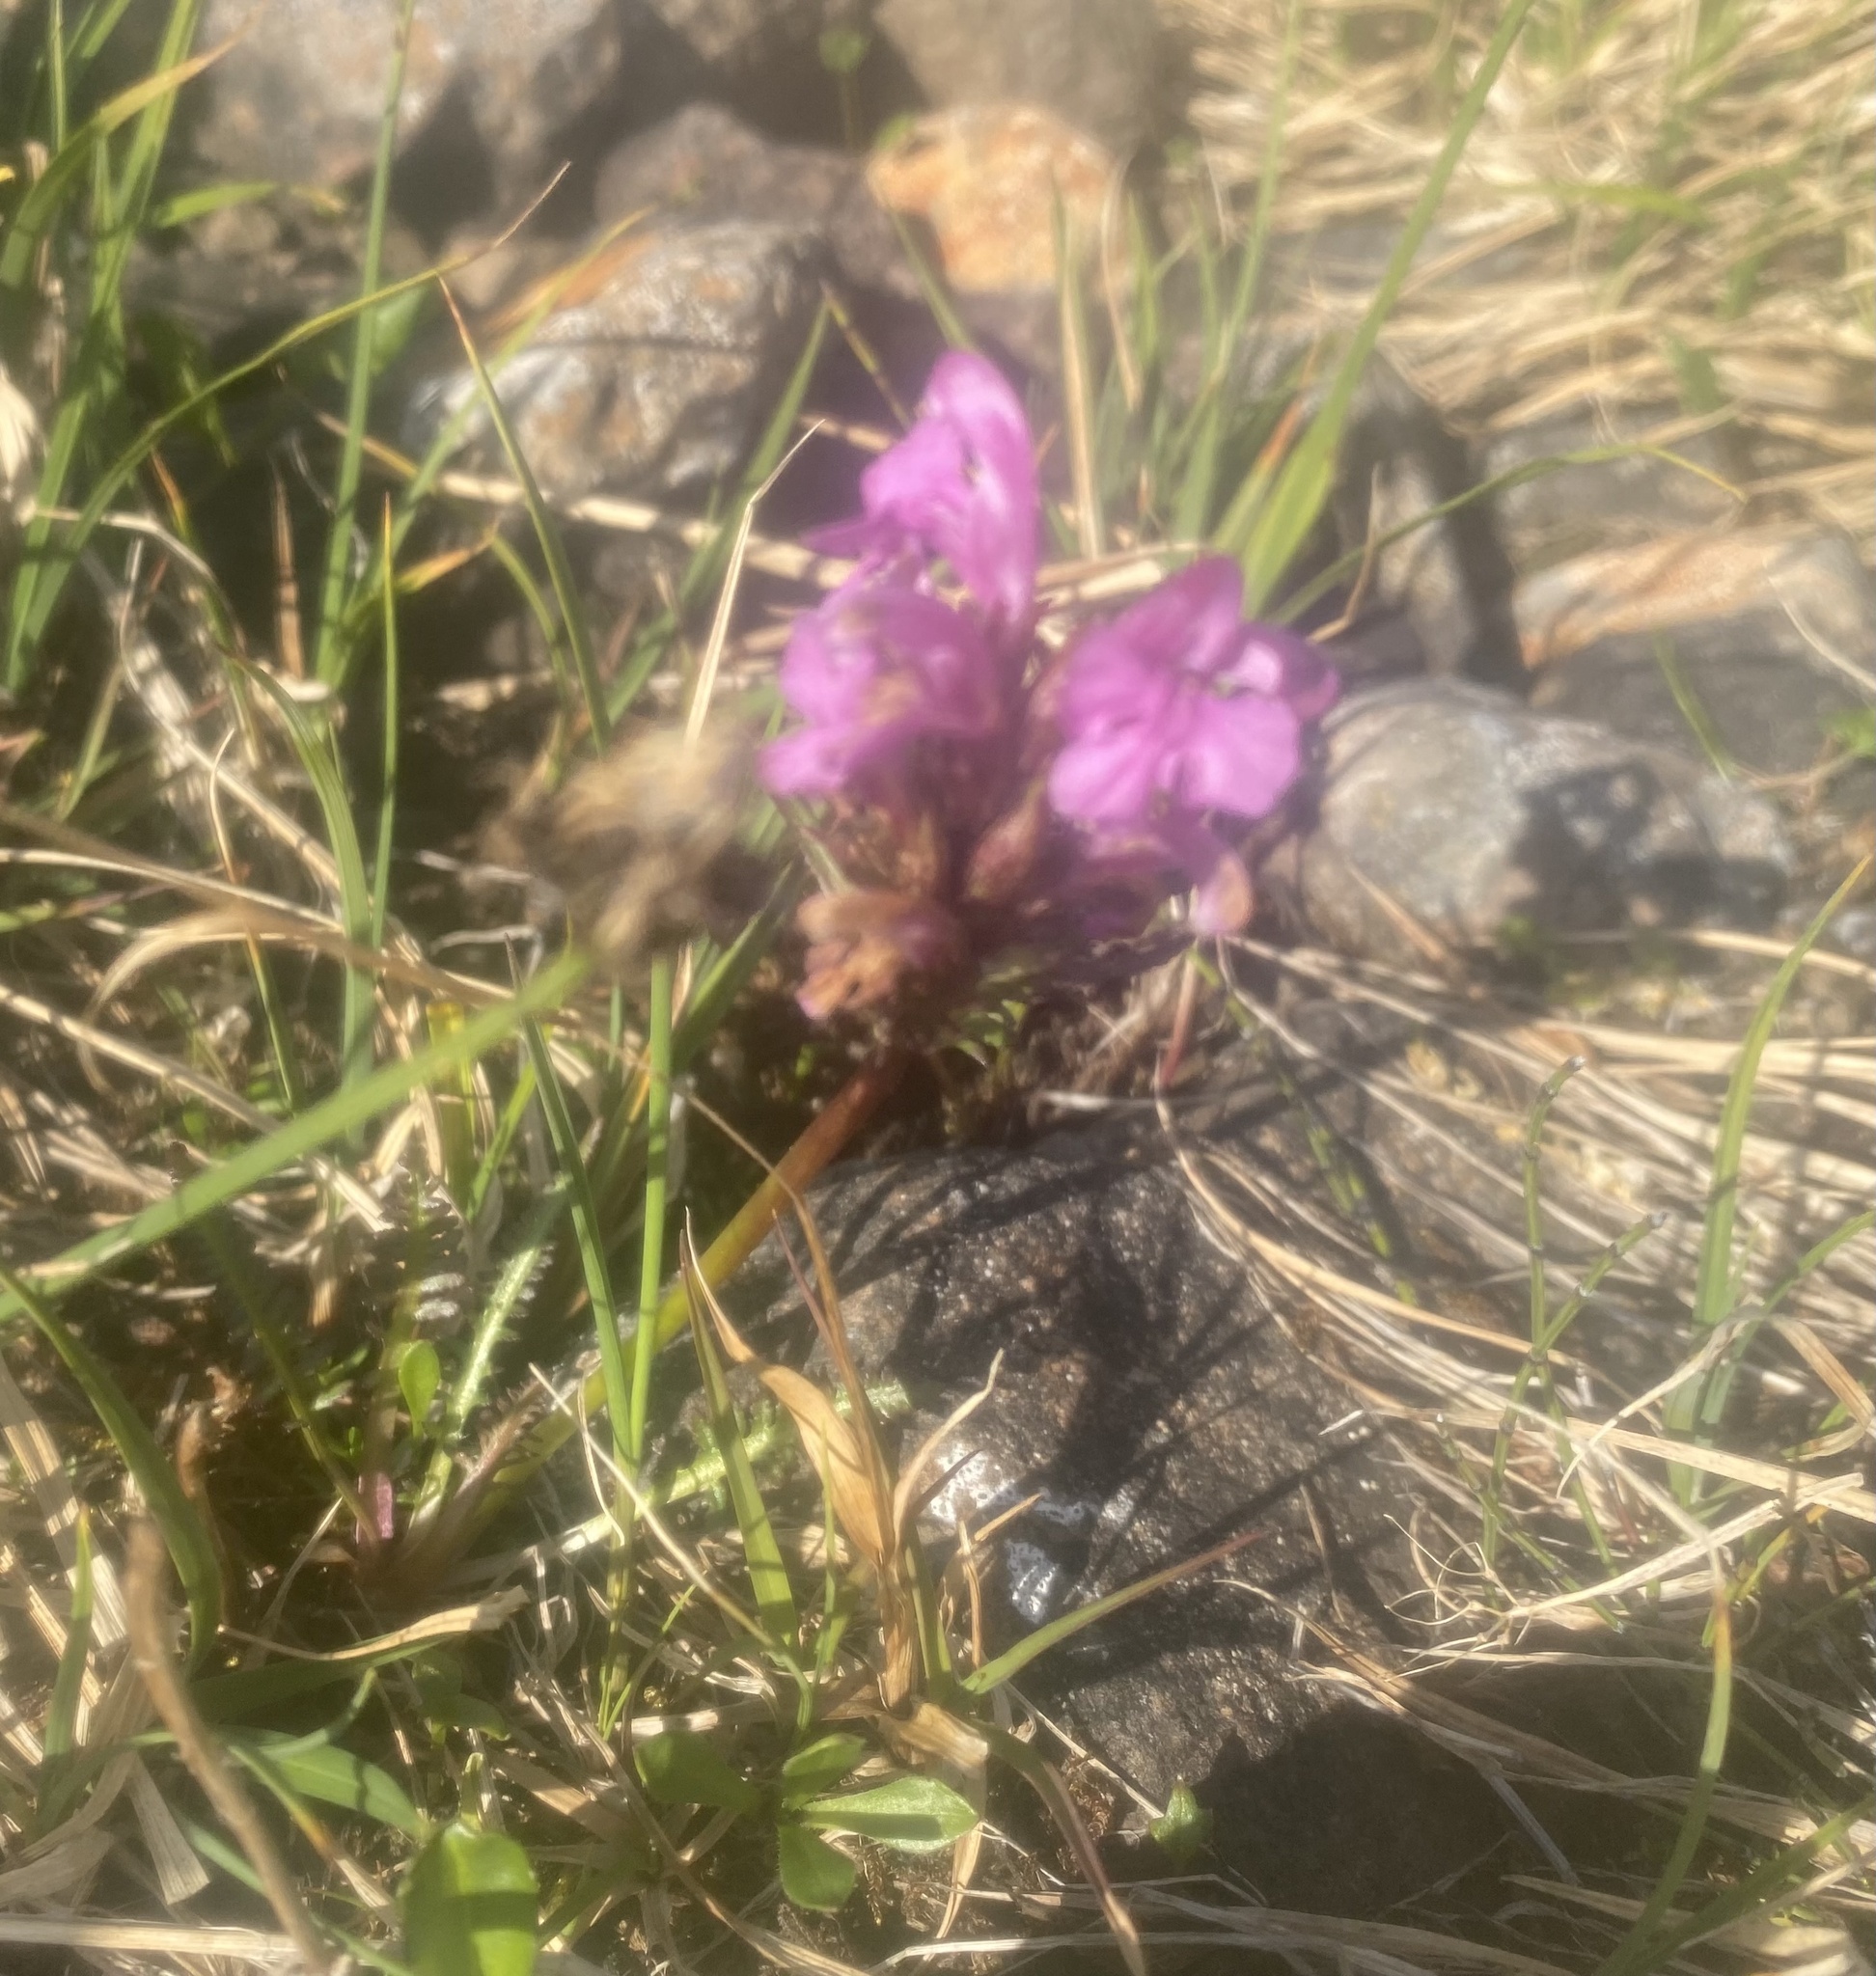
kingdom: Plantae
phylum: Tracheophyta
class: Magnoliopsida
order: Lamiales
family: Orobanchaceae
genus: Pedicularis
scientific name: Pedicularis interior
